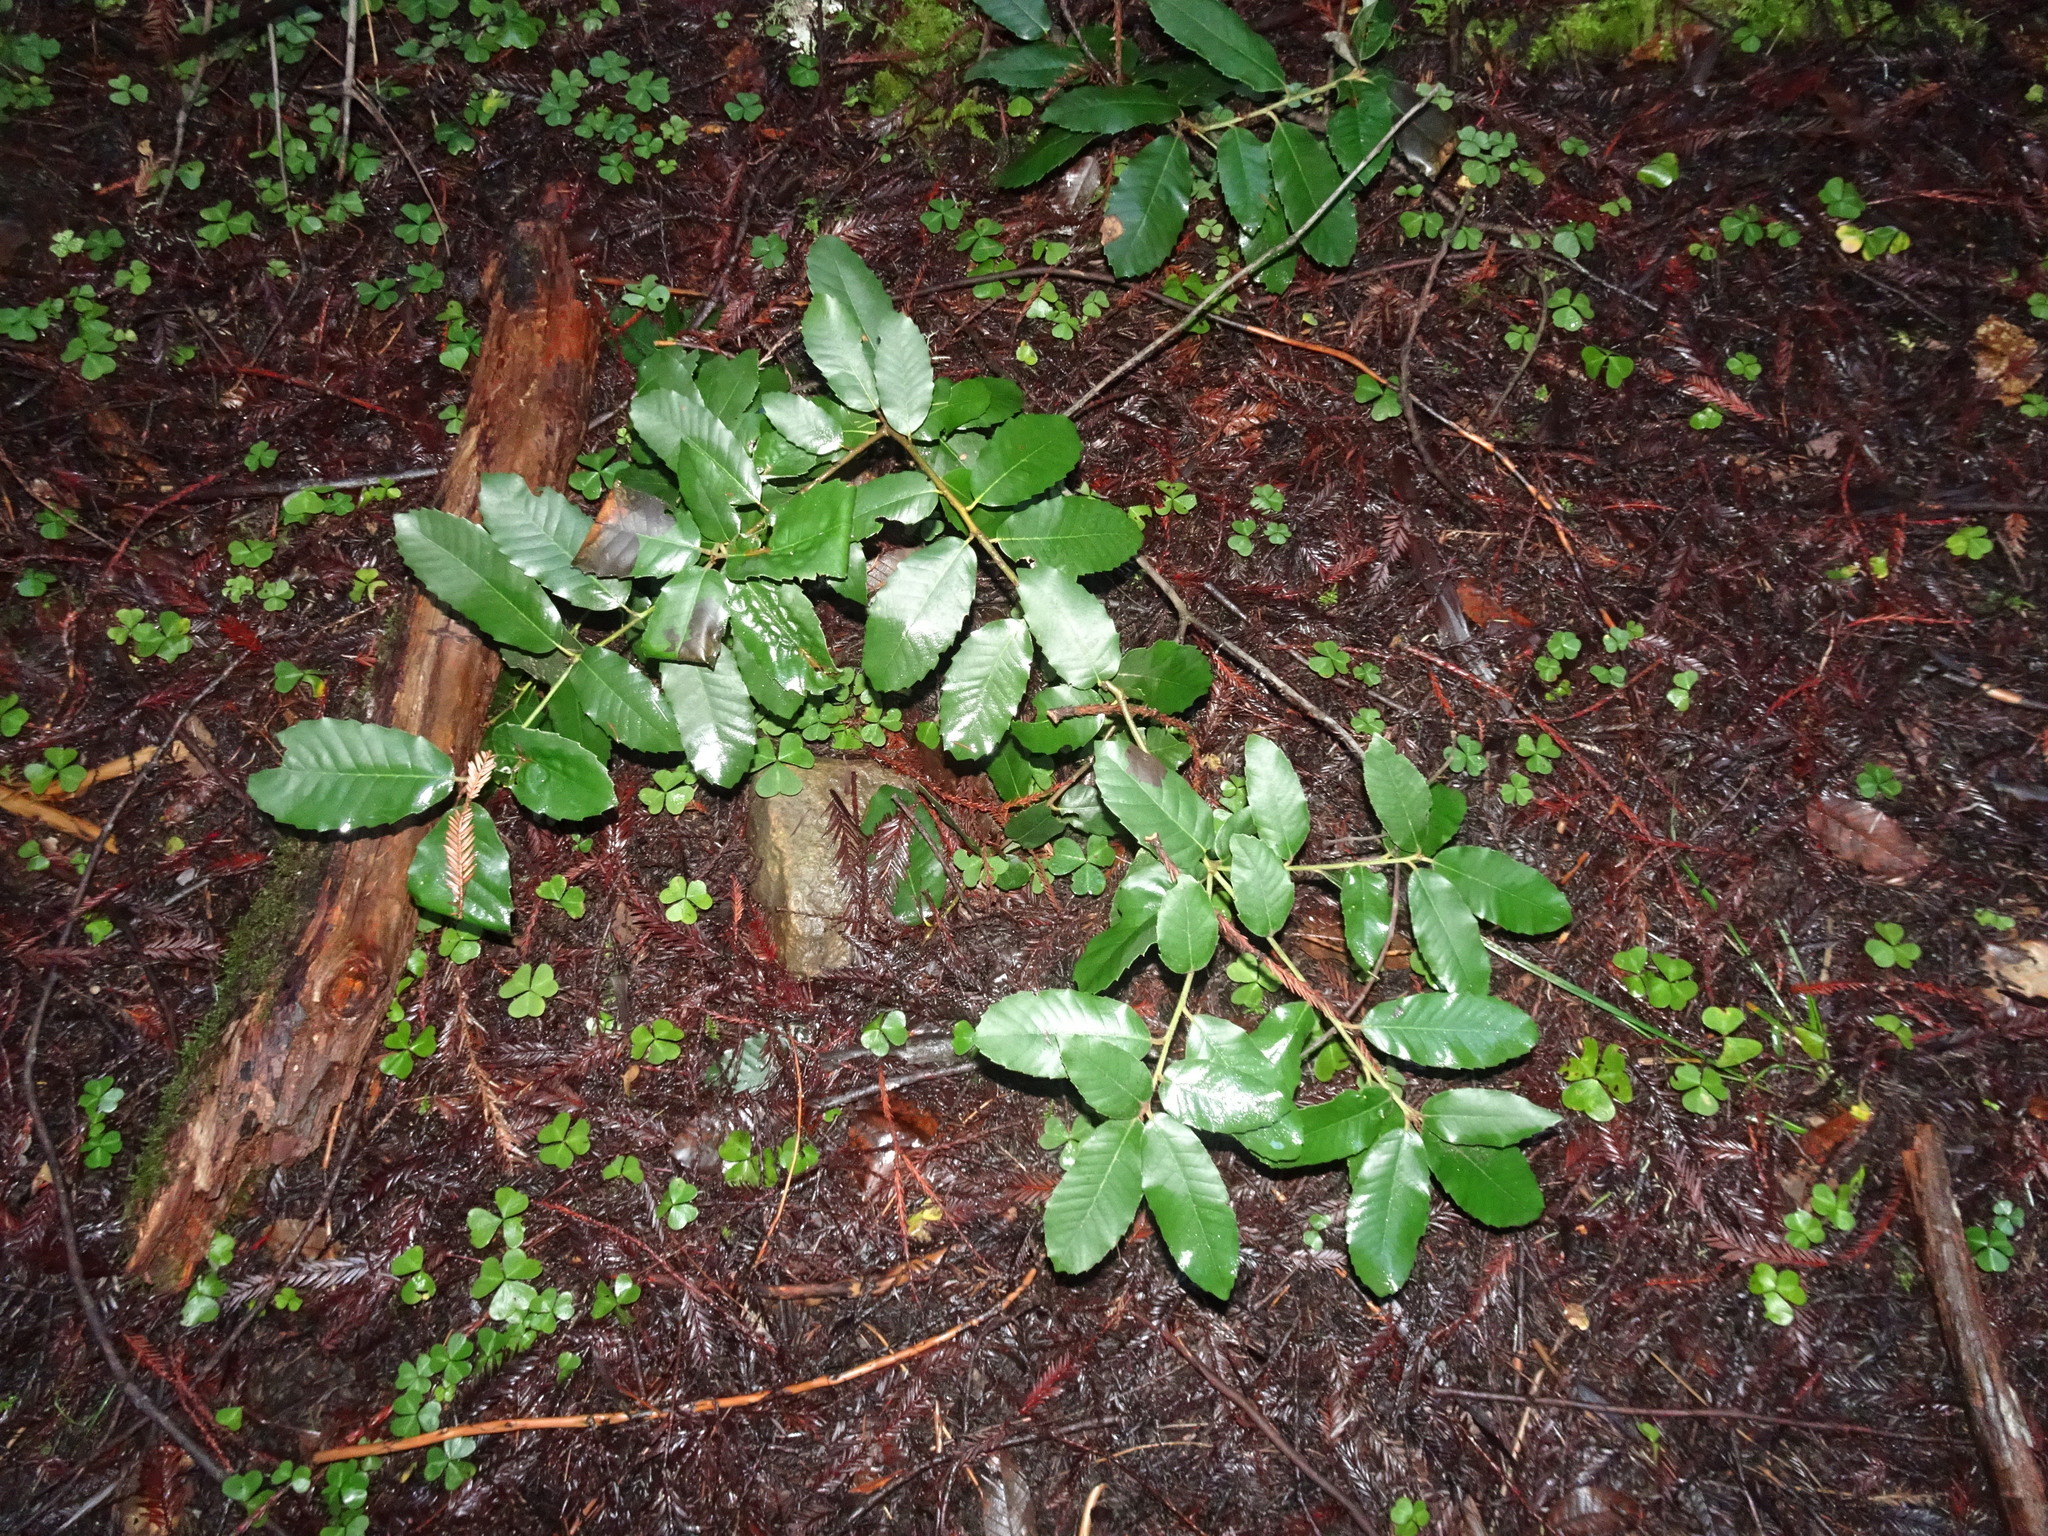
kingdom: Plantae
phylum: Tracheophyta
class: Magnoliopsida
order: Fagales
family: Fagaceae
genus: Notholithocarpus
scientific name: Notholithocarpus densiflorus
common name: Tan bark oak
